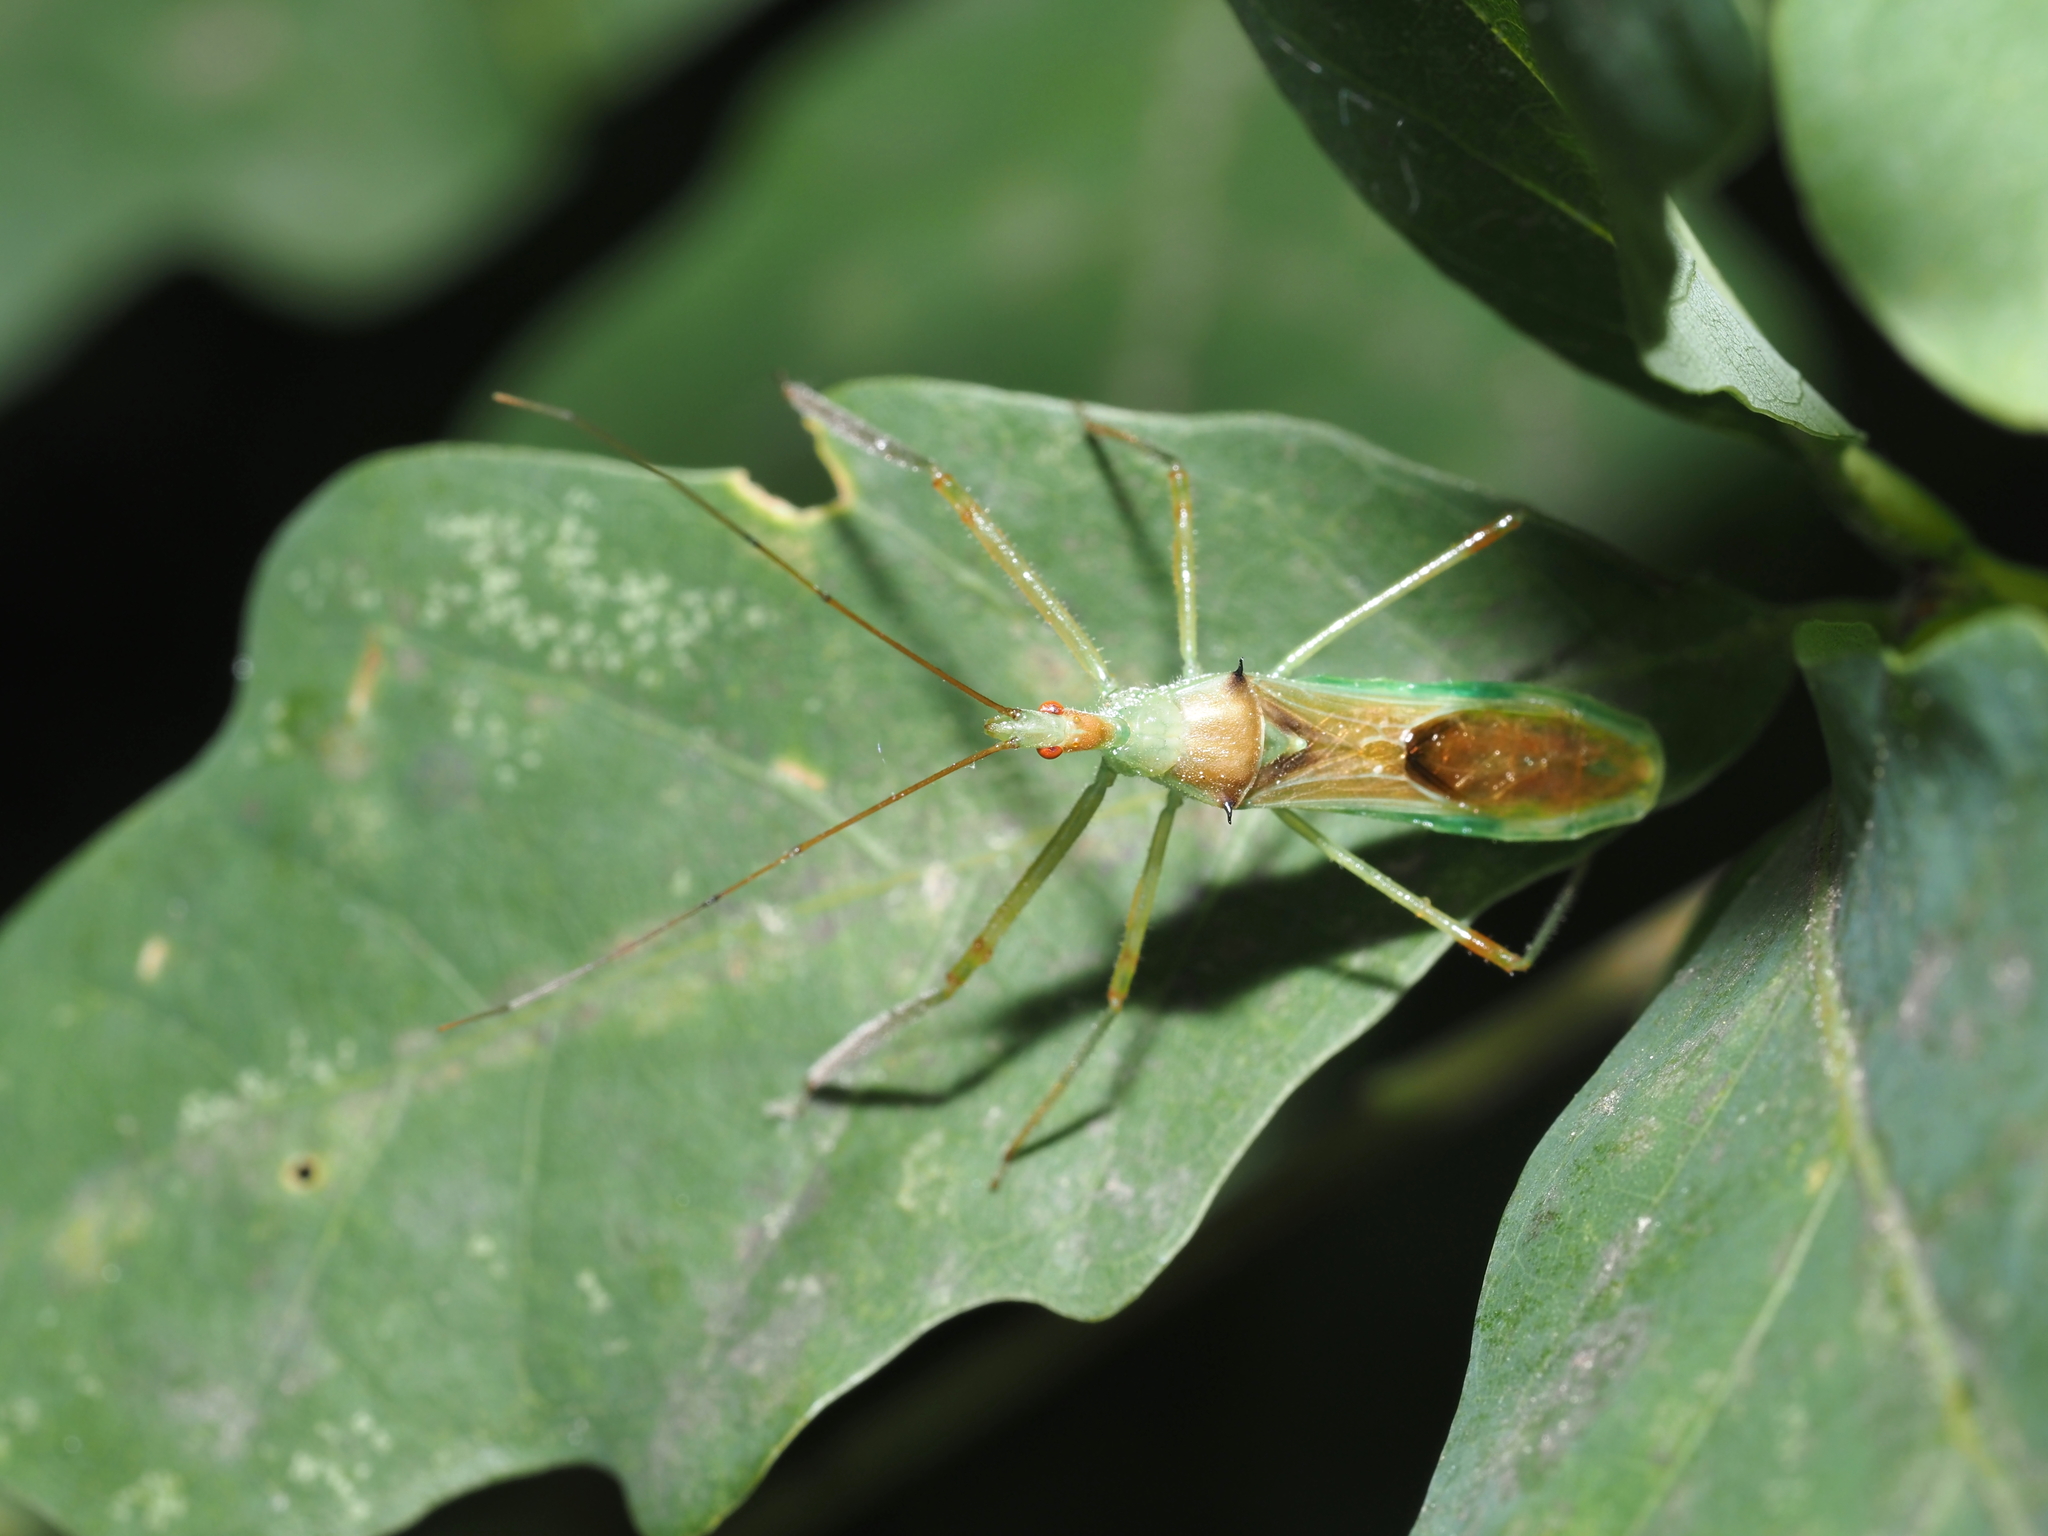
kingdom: Animalia
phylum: Arthropoda
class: Insecta
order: Hemiptera
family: Reduviidae
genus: Zelus
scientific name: Zelus luridus
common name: Pale green assassin bug
